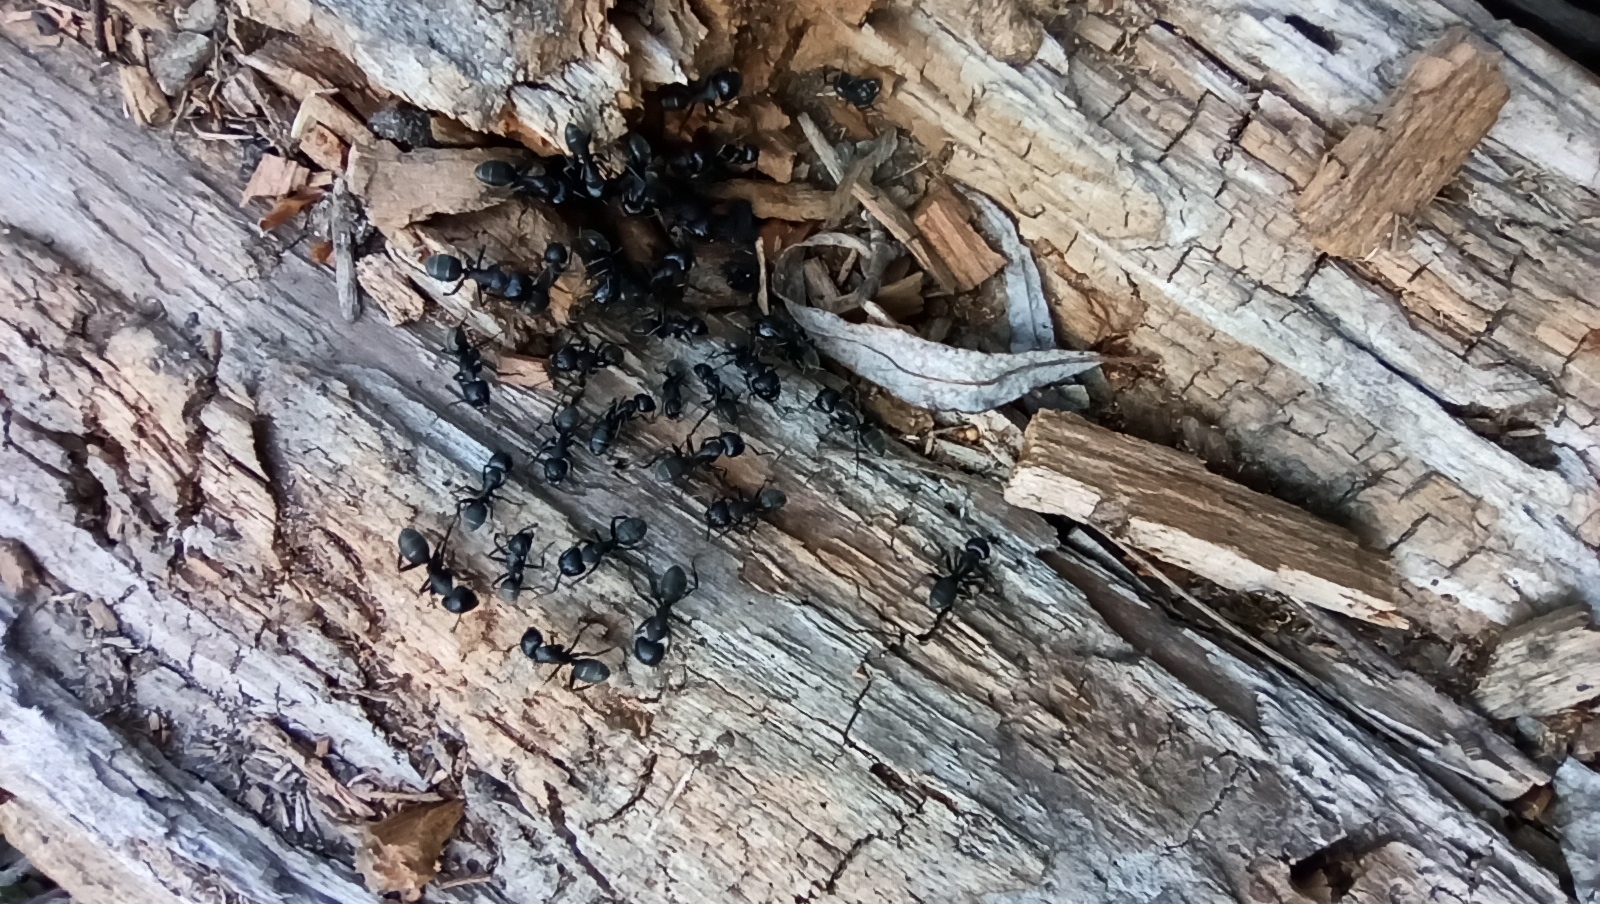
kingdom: Animalia
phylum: Arthropoda
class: Insecta
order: Hymenoptera
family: Formicidae
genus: Camponotus
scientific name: Camponotus vagus
